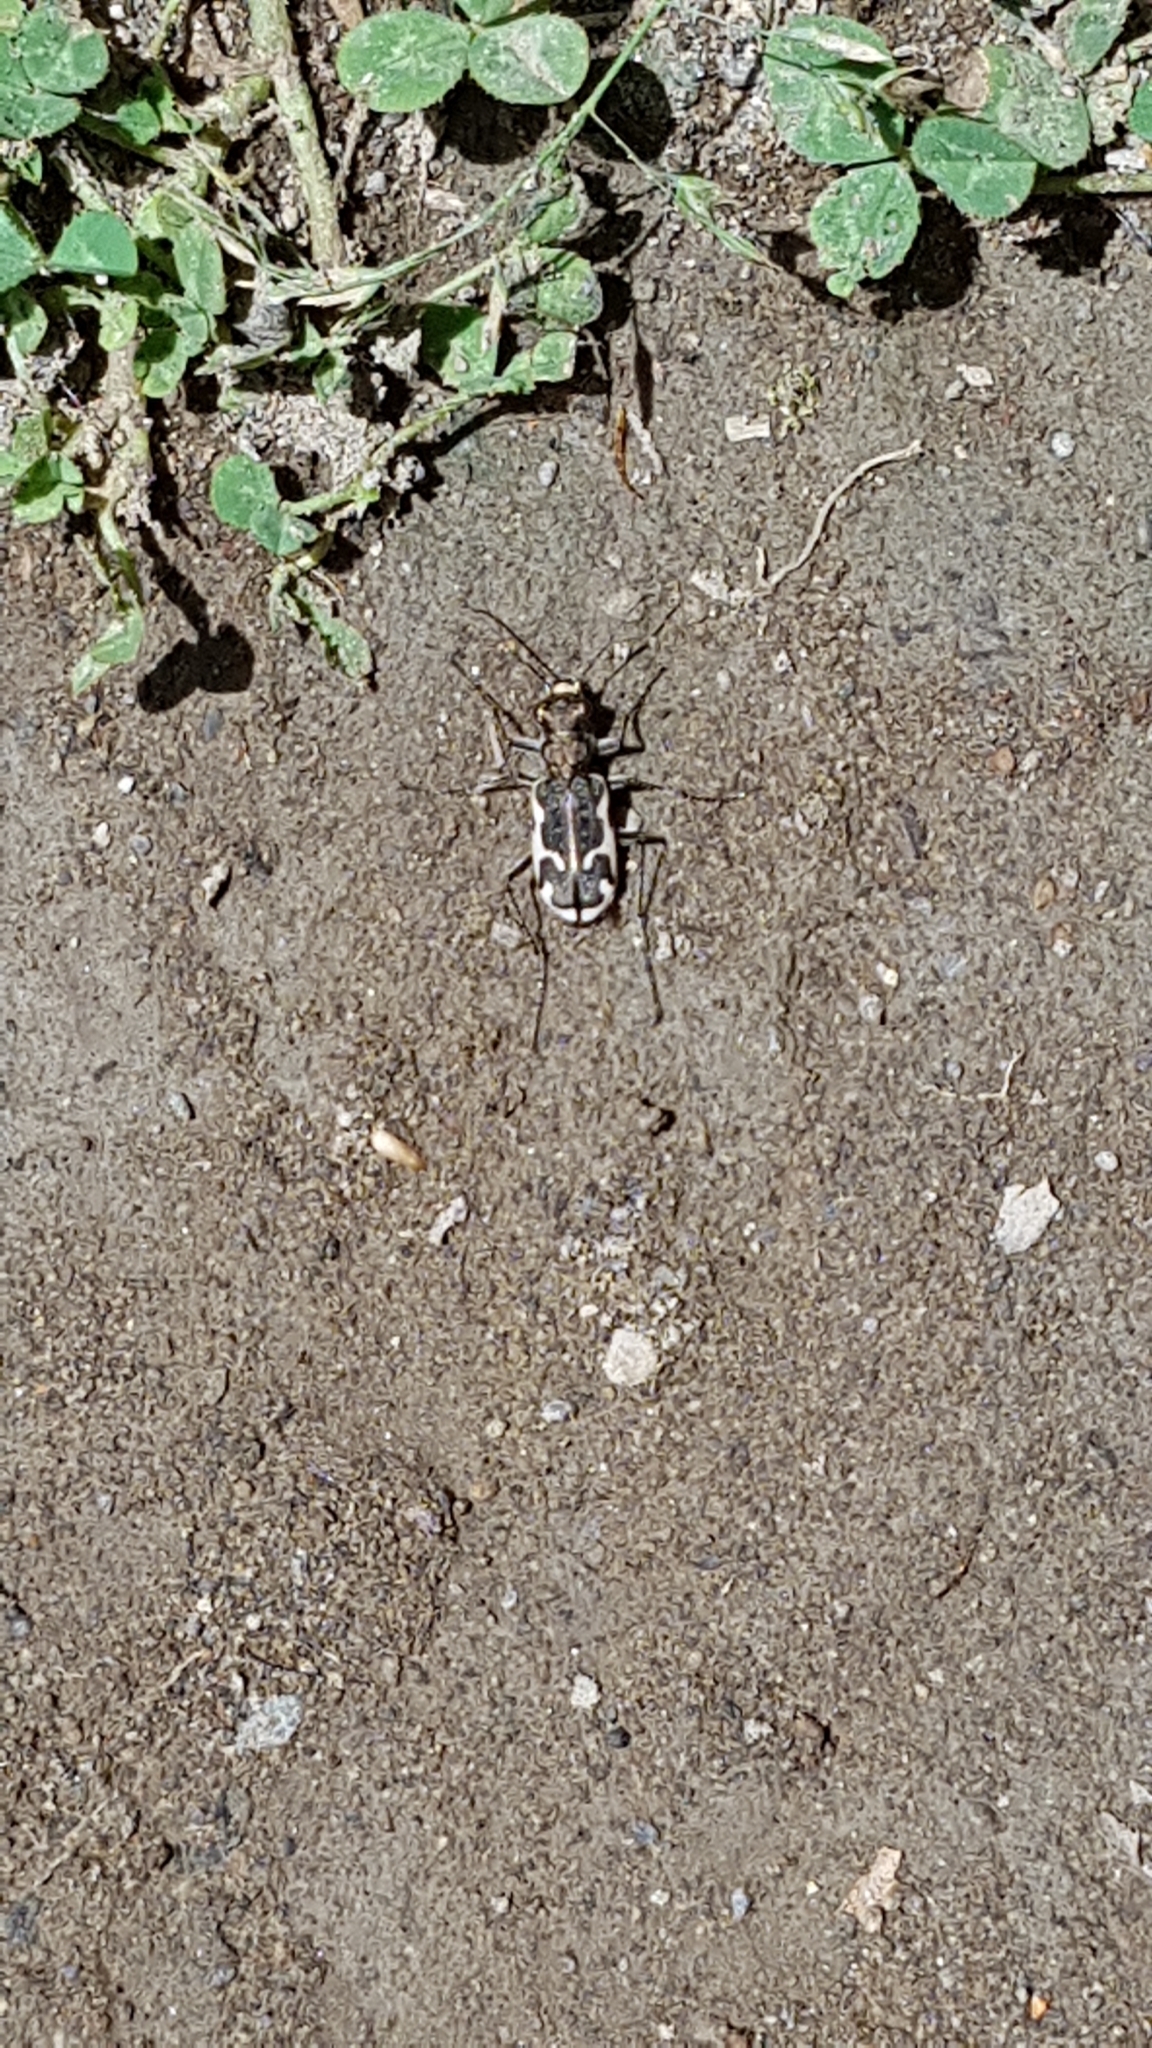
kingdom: Animalia
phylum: Arthropoda
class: Insecta
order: Coleoptera
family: Carabidae
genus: Neocicindela
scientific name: Neocicindela tuberculata
